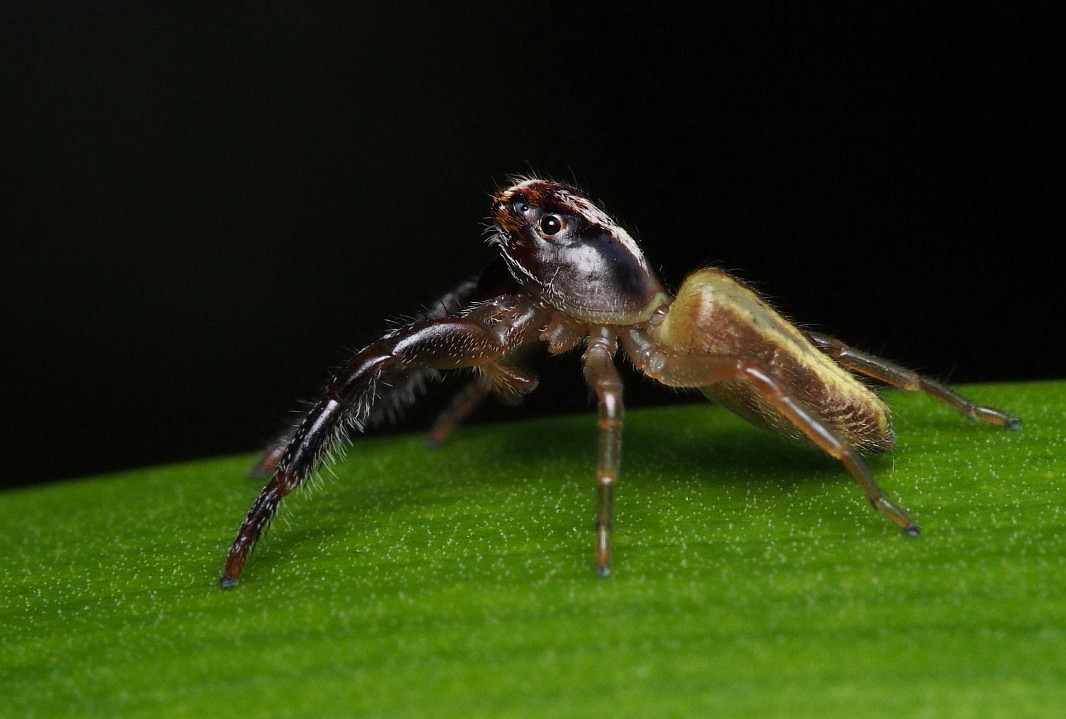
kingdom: Animalia
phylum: Arthropoda
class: Arachnida
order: Araneae
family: Salticidae
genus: Trite
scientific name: Trite planiceps
